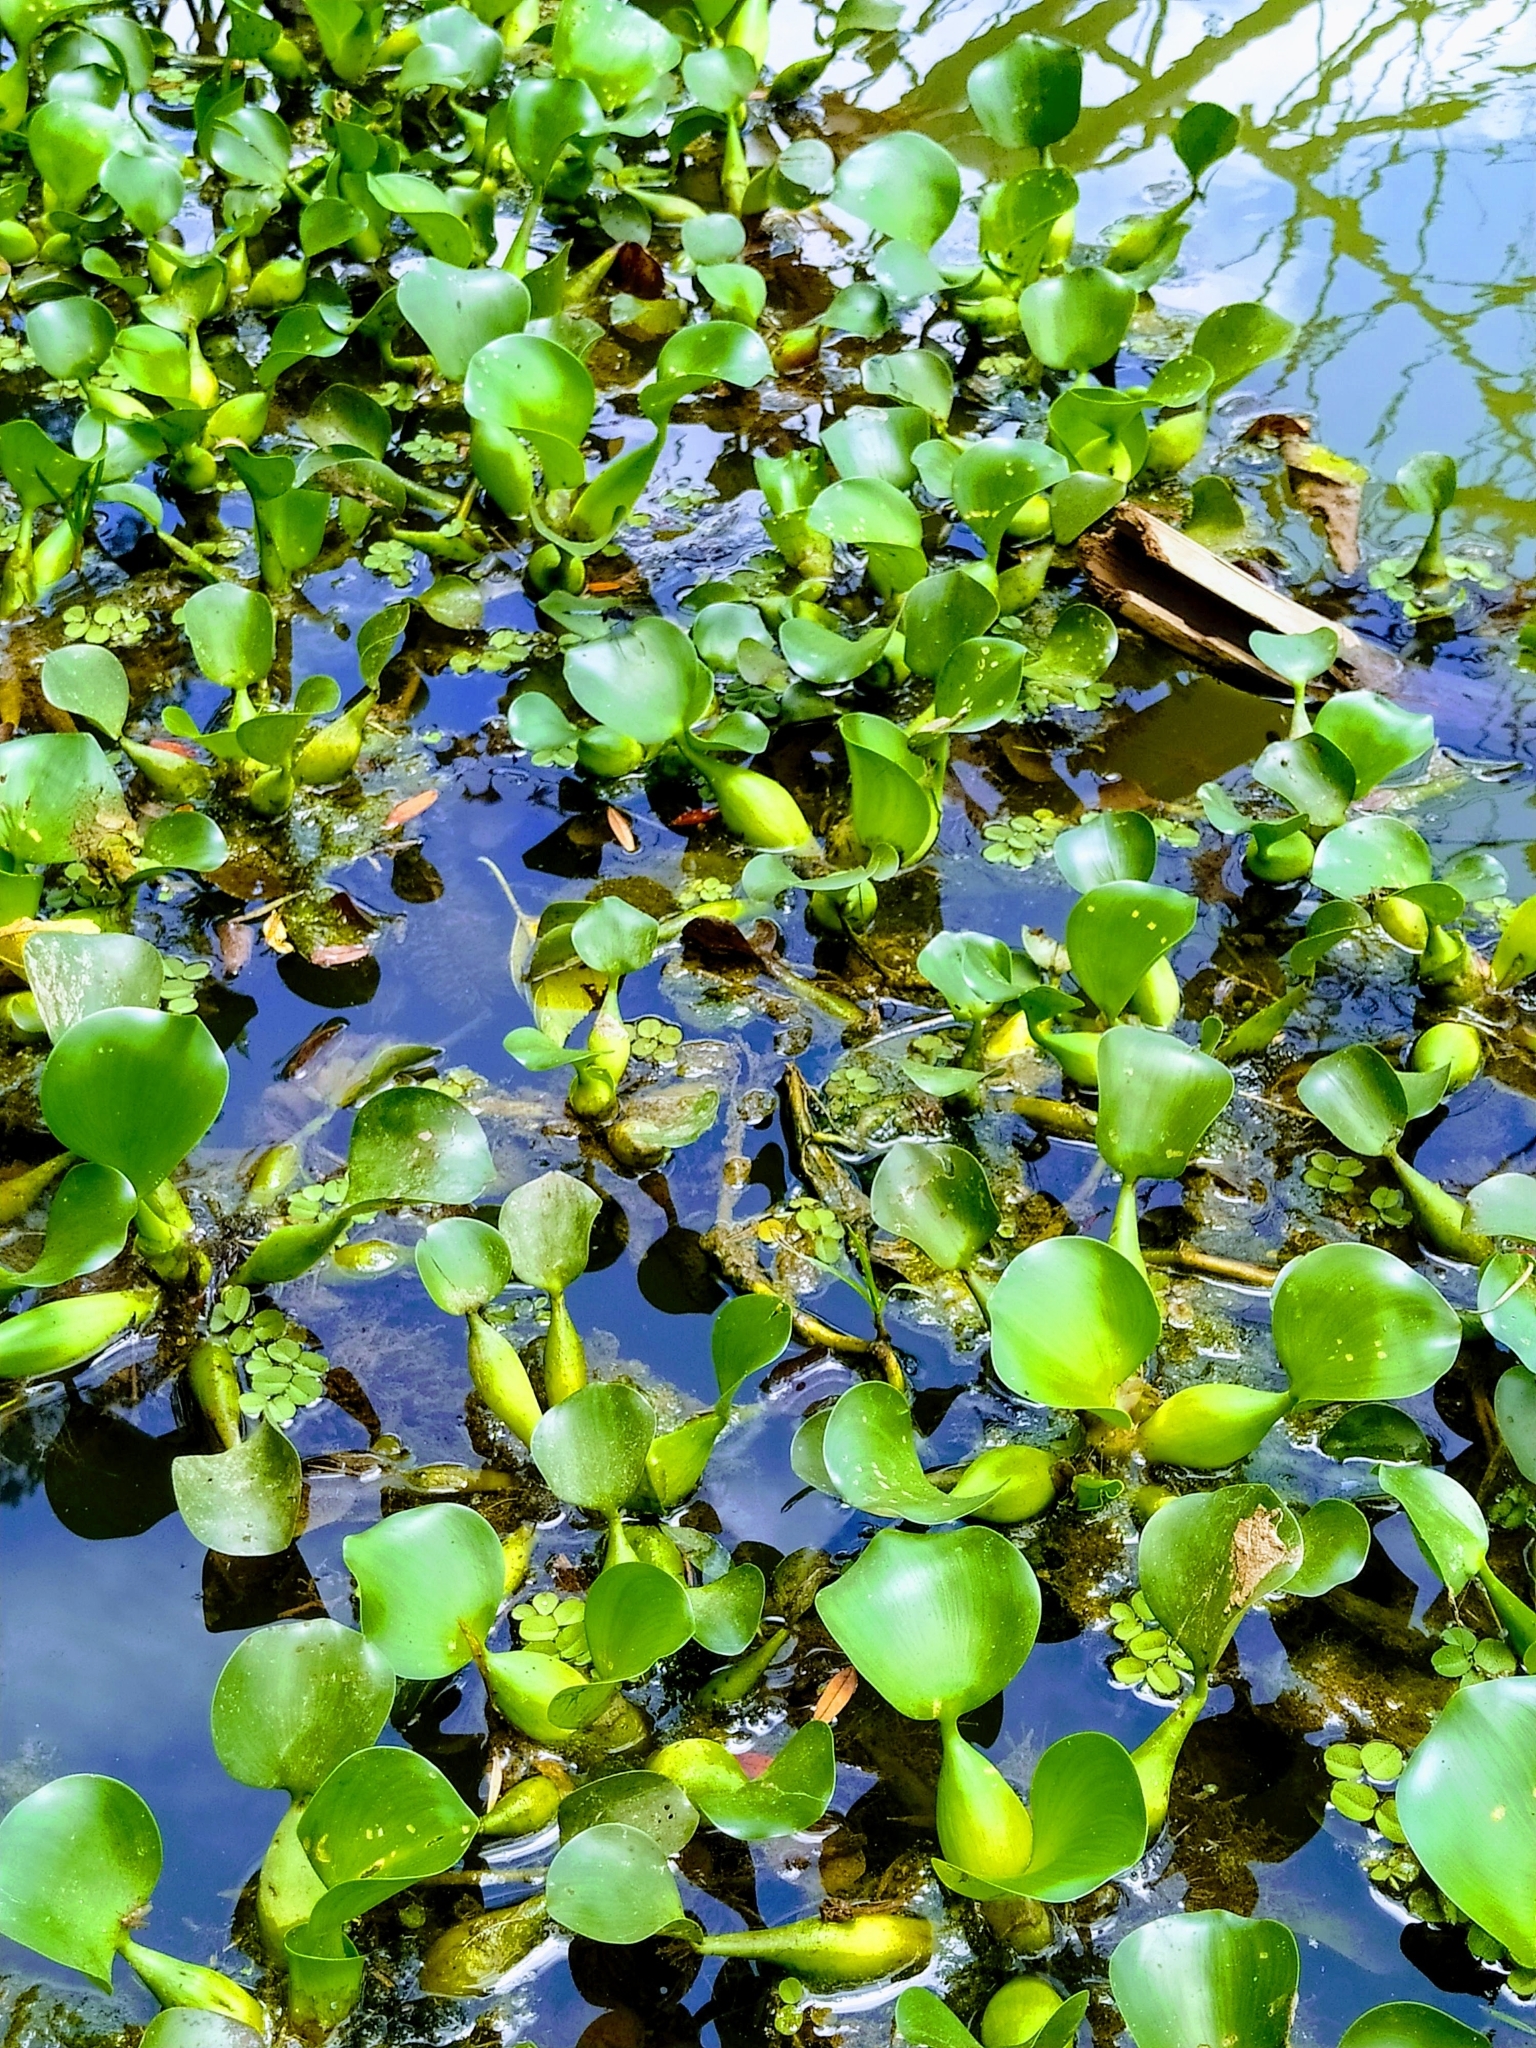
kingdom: Plantae
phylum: Tracheophyta
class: Liliopsida
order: Commelinales
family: Pontederiaceae
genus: Pontederia
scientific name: Pontederia crassipes
